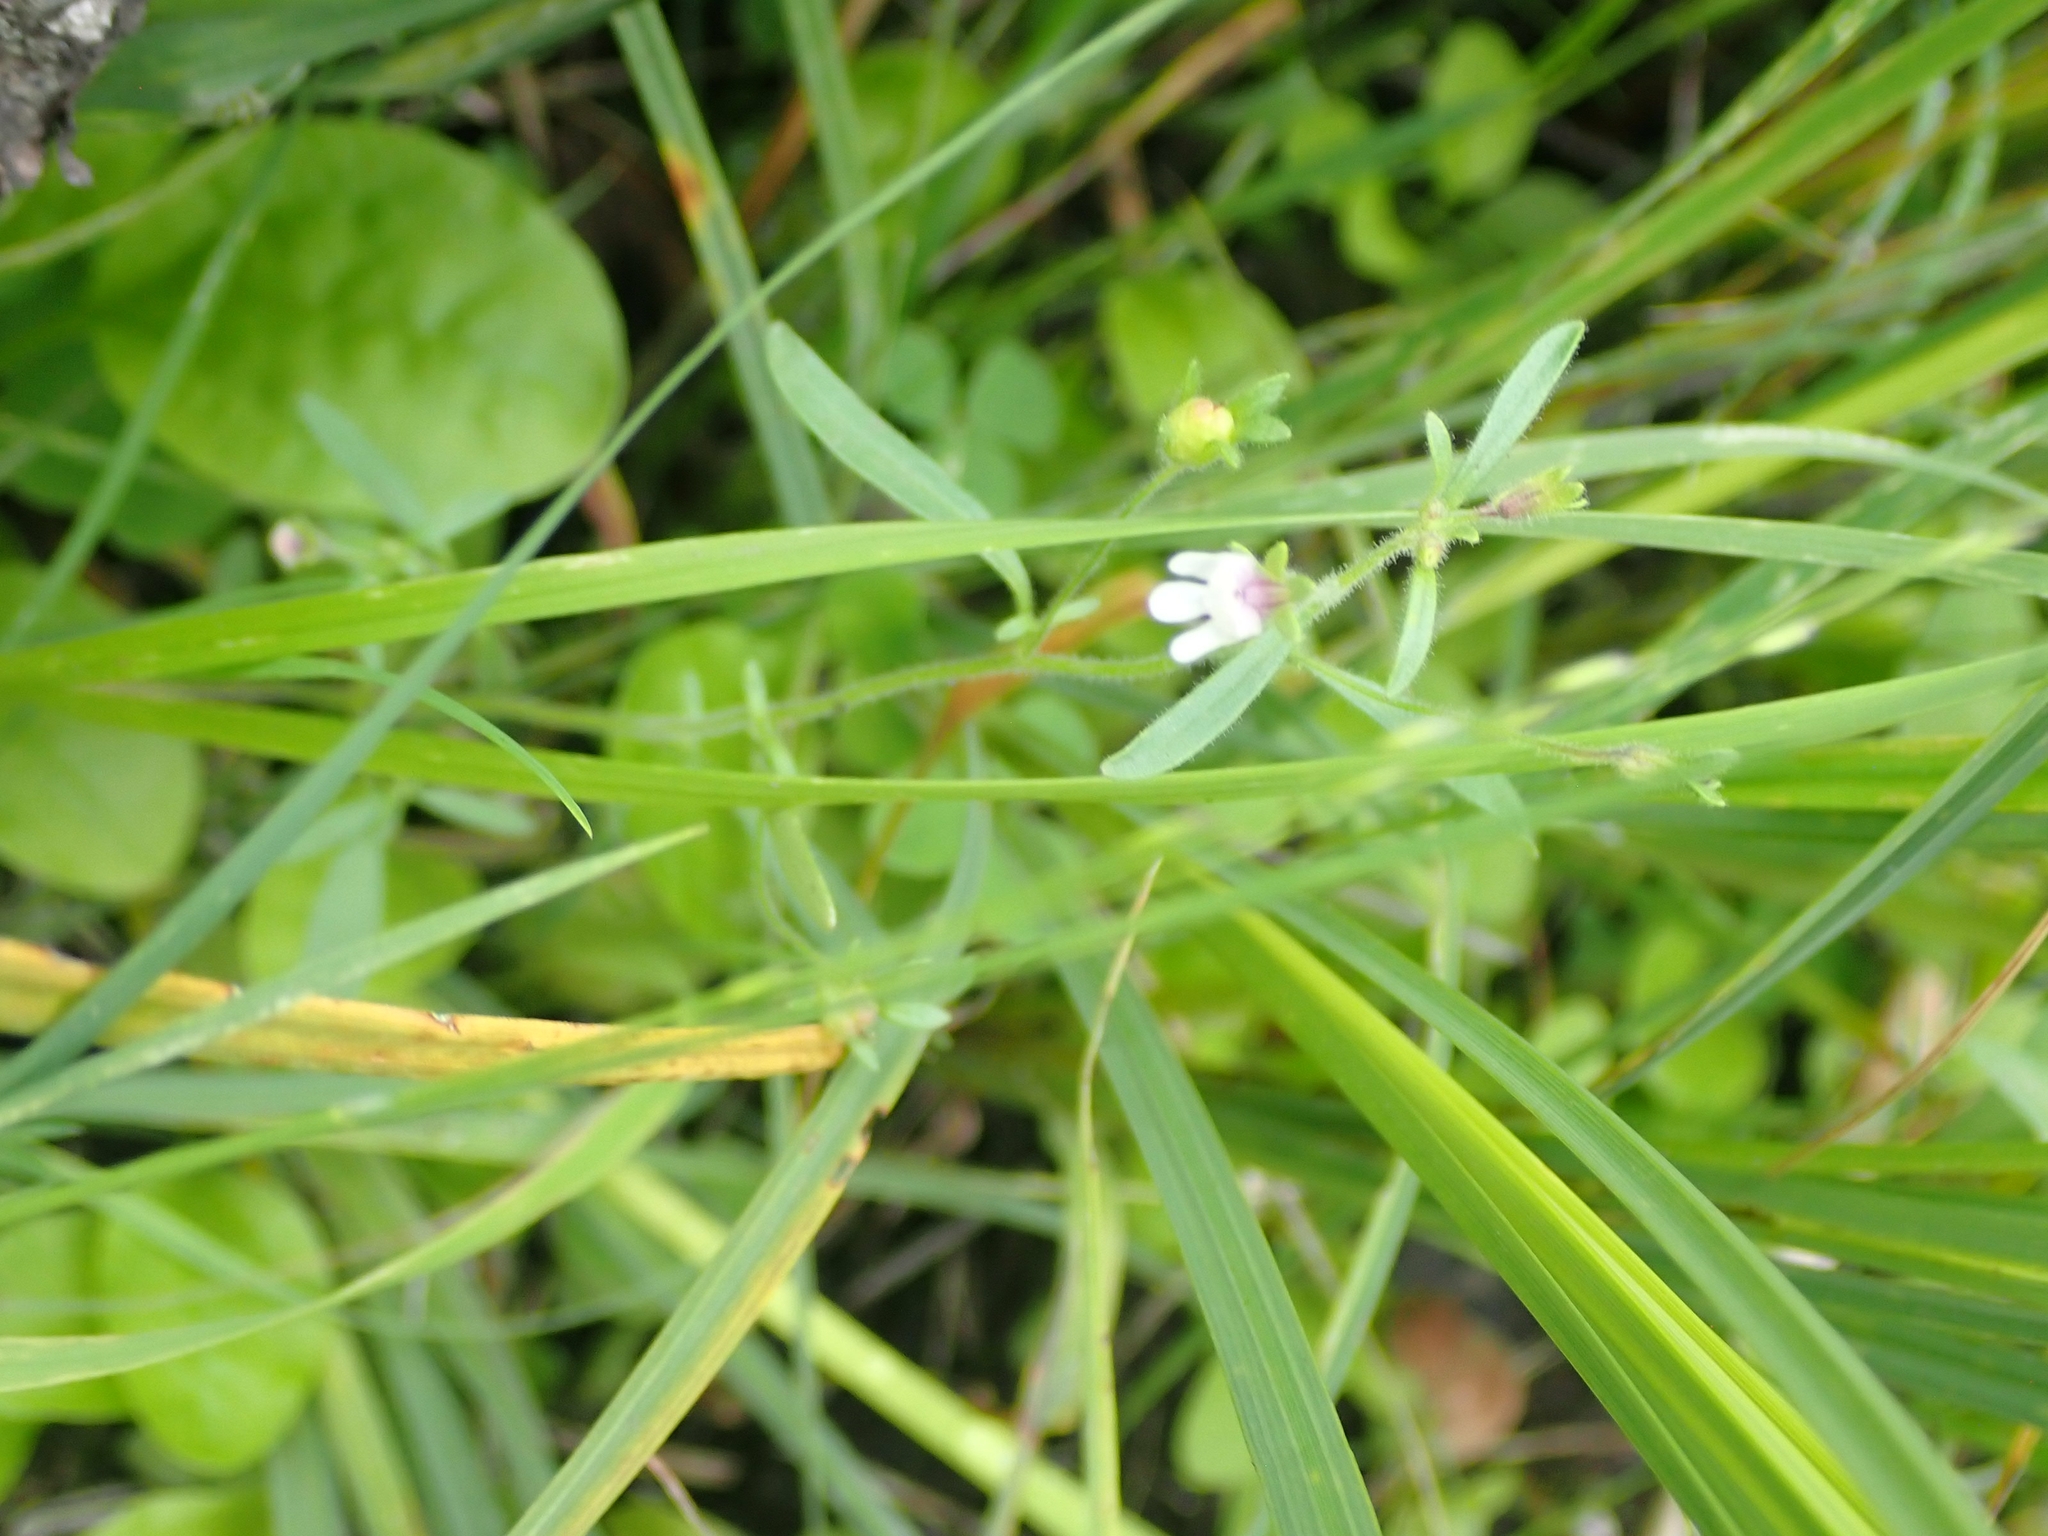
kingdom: Plantae
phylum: Tracheophyta
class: Magnoliopsida
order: Lamiales
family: Plantaginaceae
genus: Chaenorhinum
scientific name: Chaenorhinum minus
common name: Dwarf snapdragon
